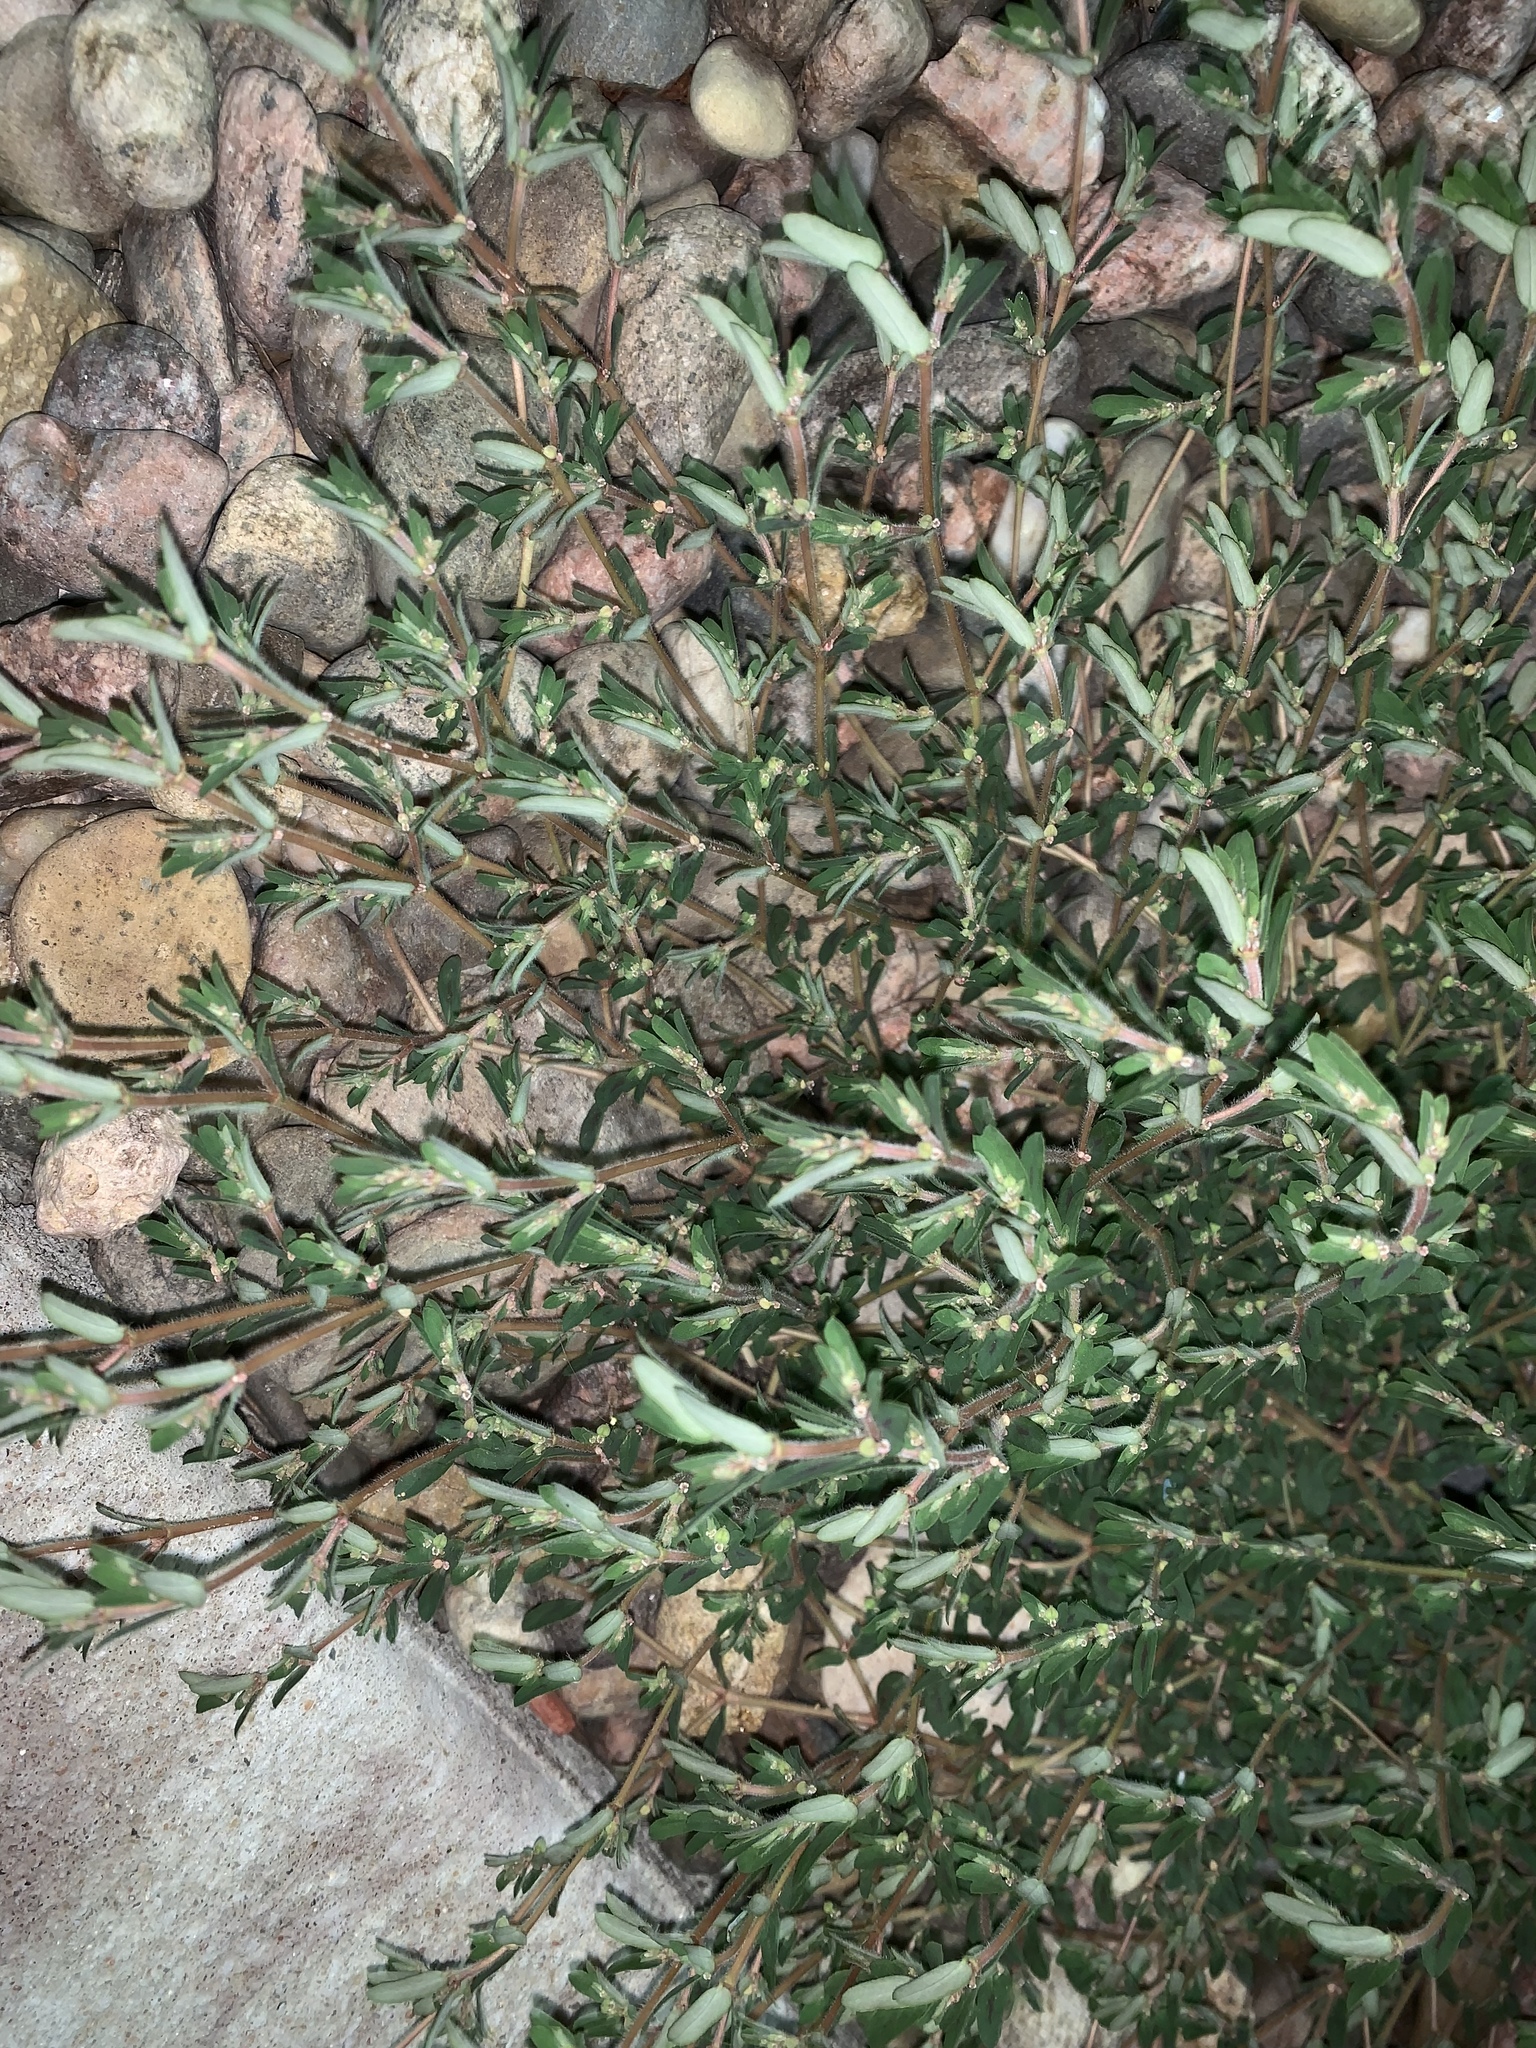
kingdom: Plantae
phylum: Tracheophyta
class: Magnoliopsida
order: Malpighiales
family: Euphorbiaceae
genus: Euphorbia
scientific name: Euphorbia maculata
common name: Spotted spurge
